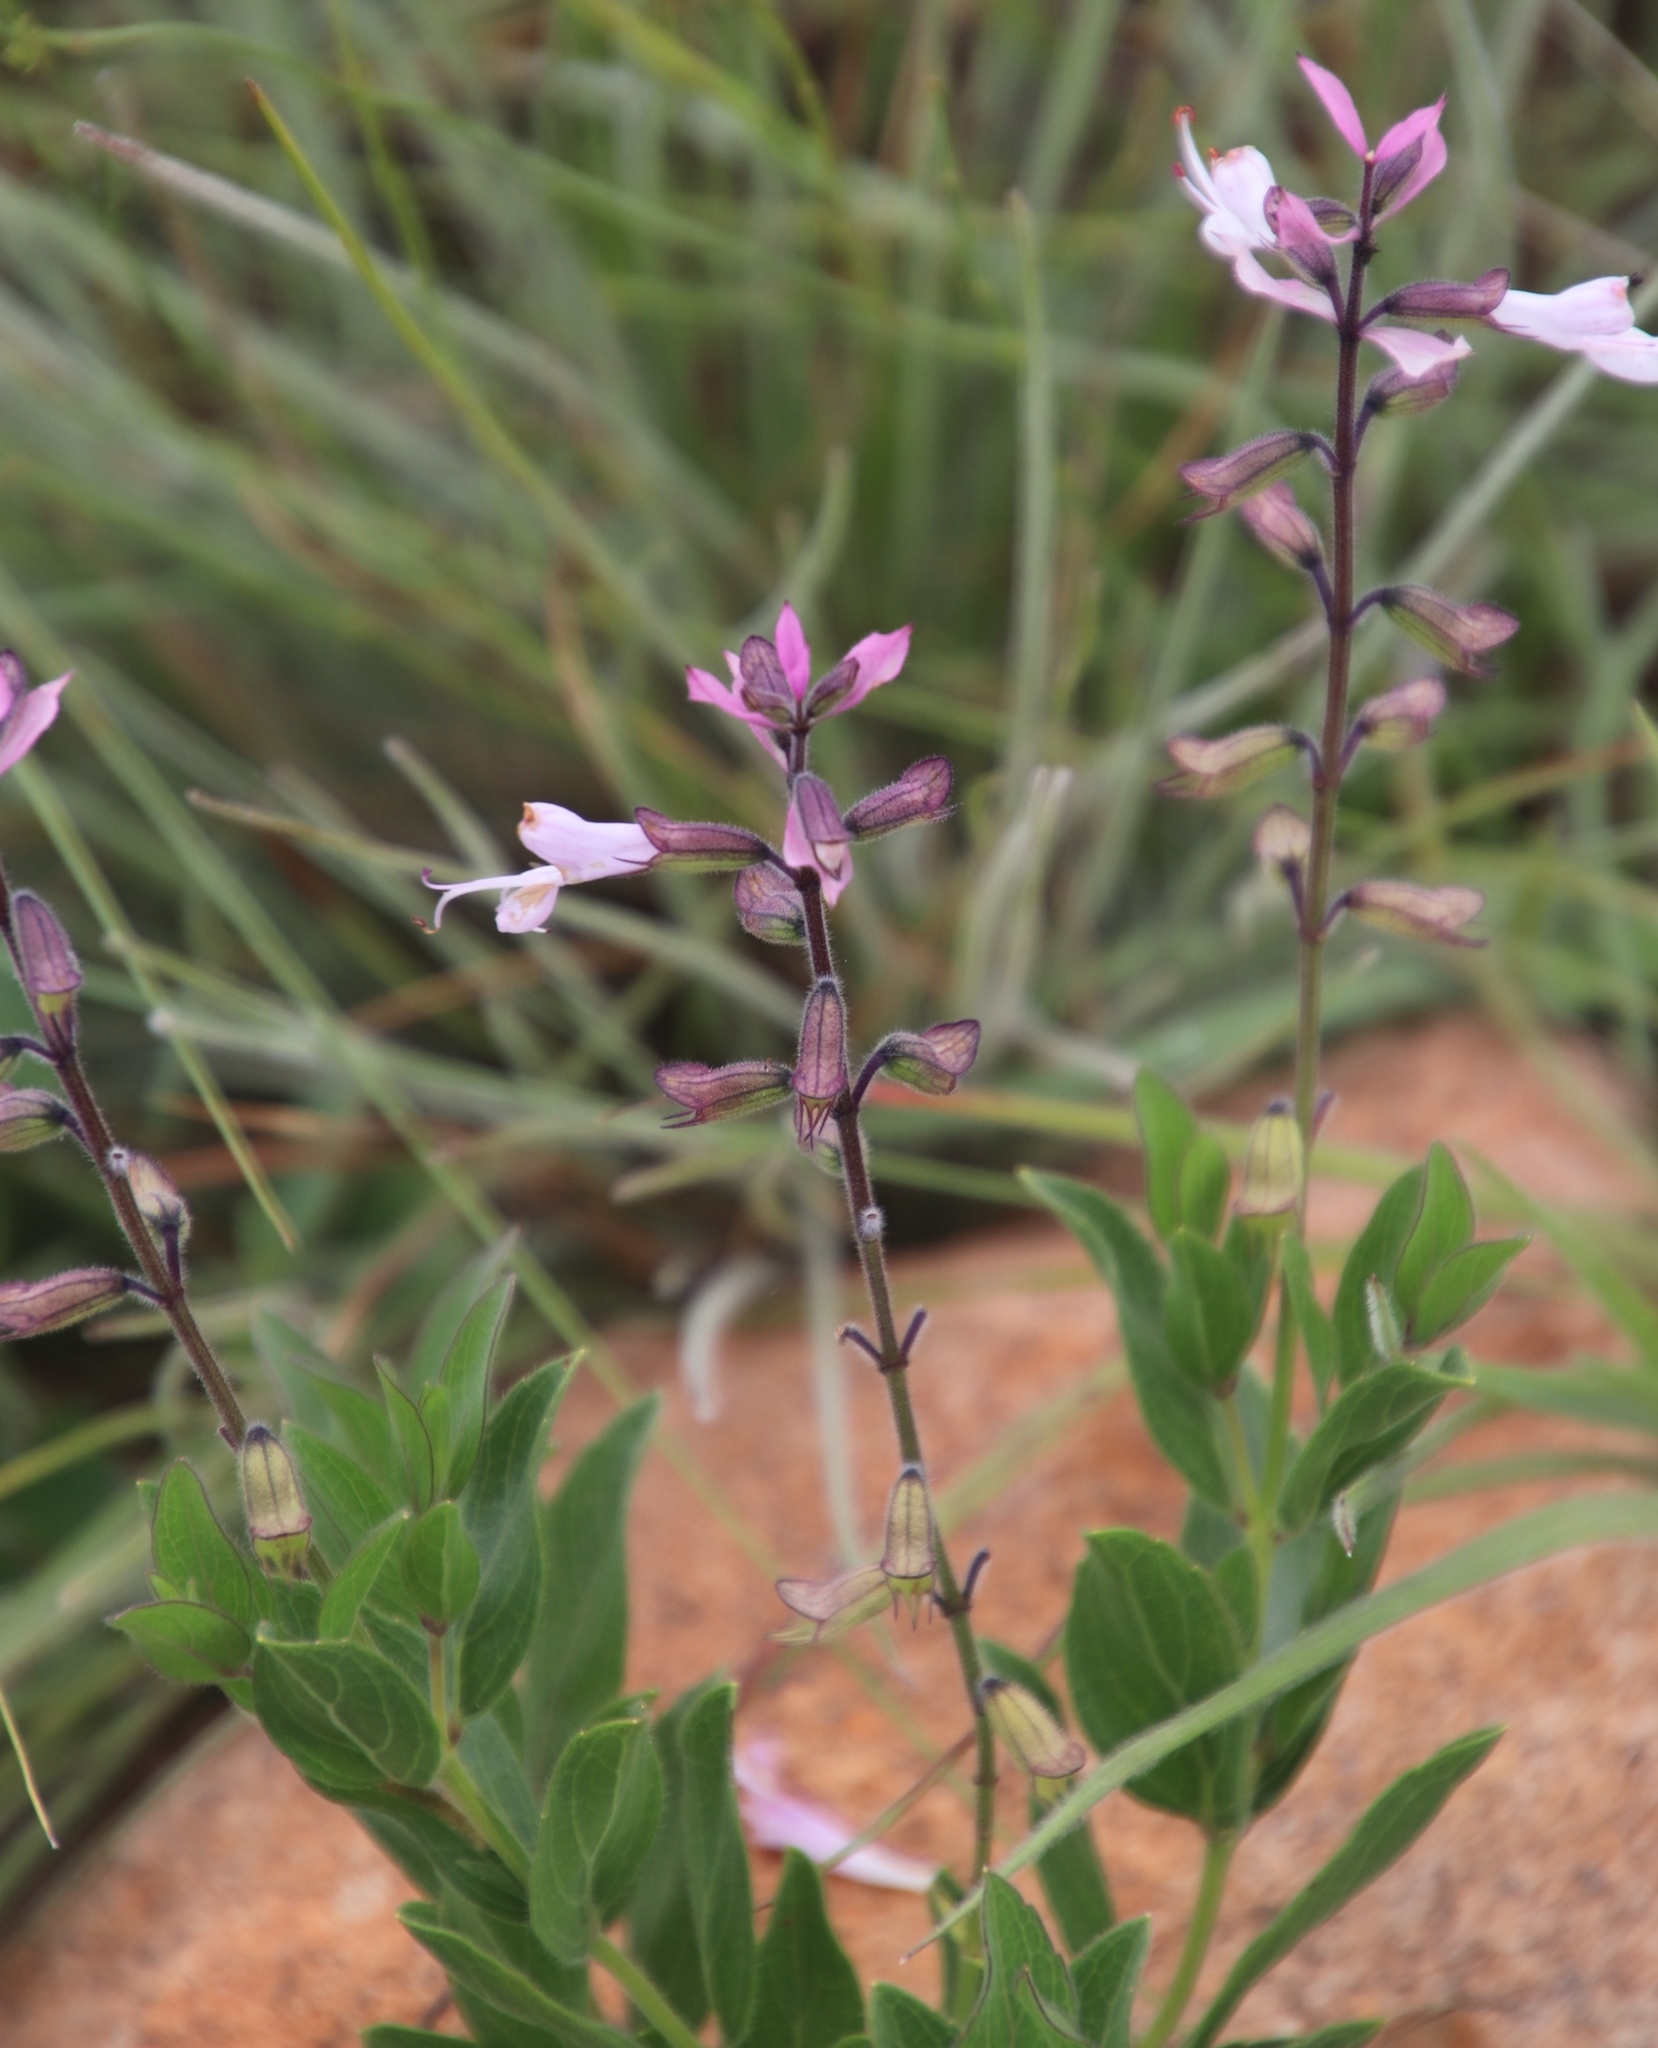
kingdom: Plantae
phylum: Tracheophyta
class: Magnoliopsida
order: Lamiales
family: Lamiaceae
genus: Syncolostemon
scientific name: Syncolostemon foliosus
